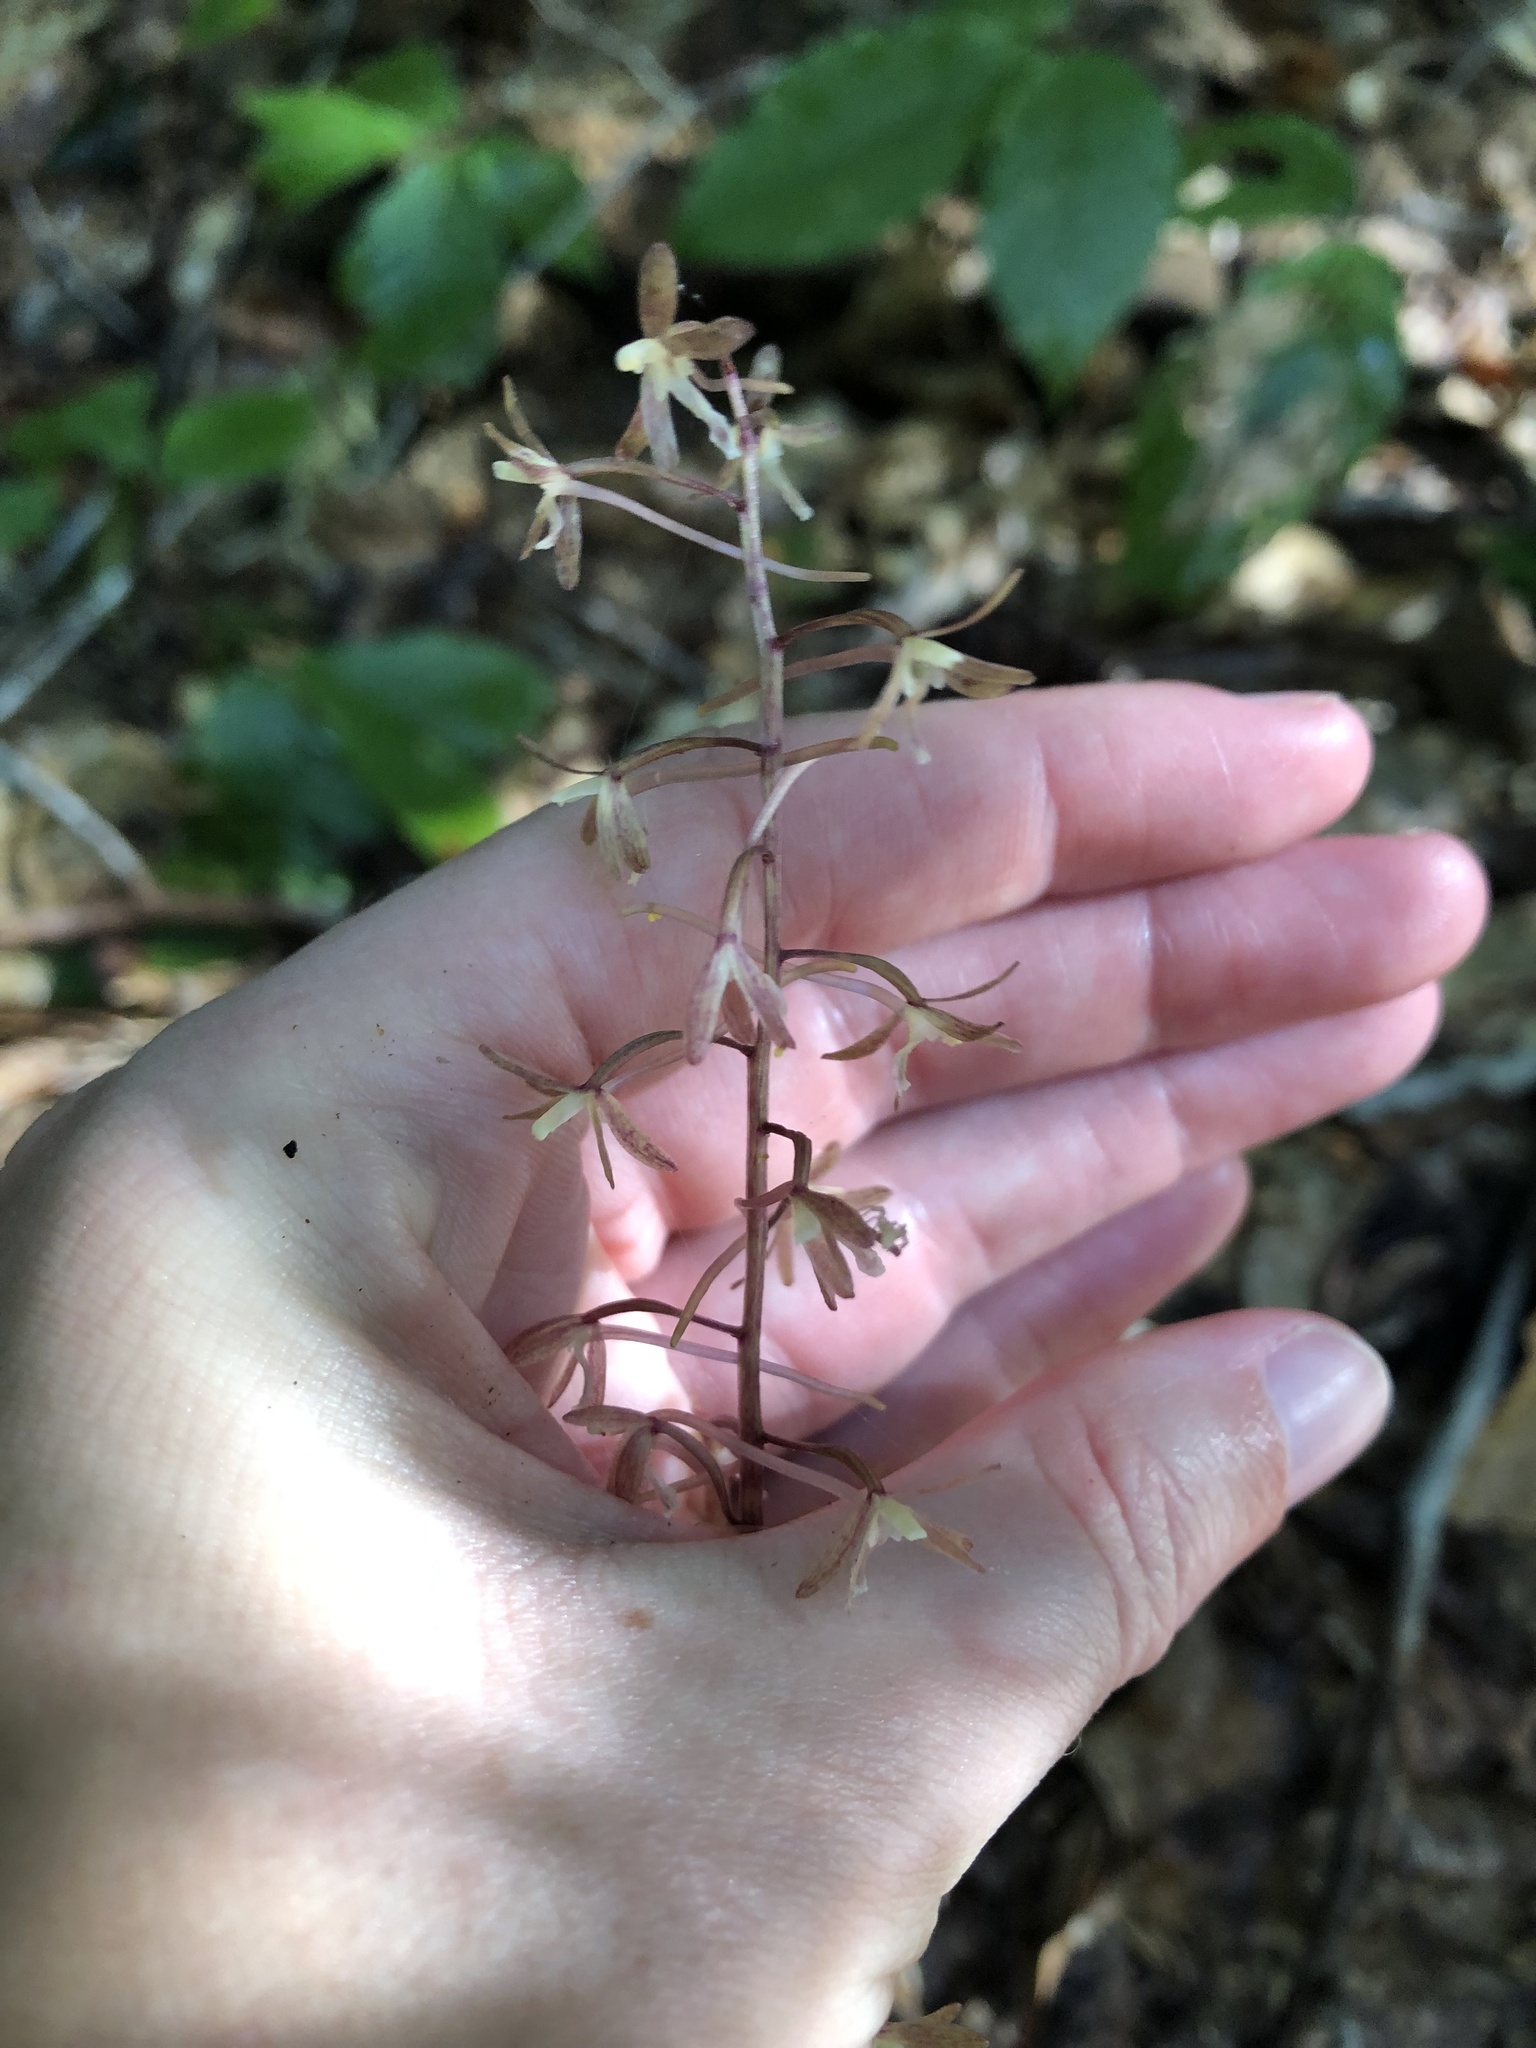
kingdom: Plantae
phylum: Tracheophyta
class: Liliopsida
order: Asparagales
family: Orchidaceae
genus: Tipularia
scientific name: Tipularia discolor
